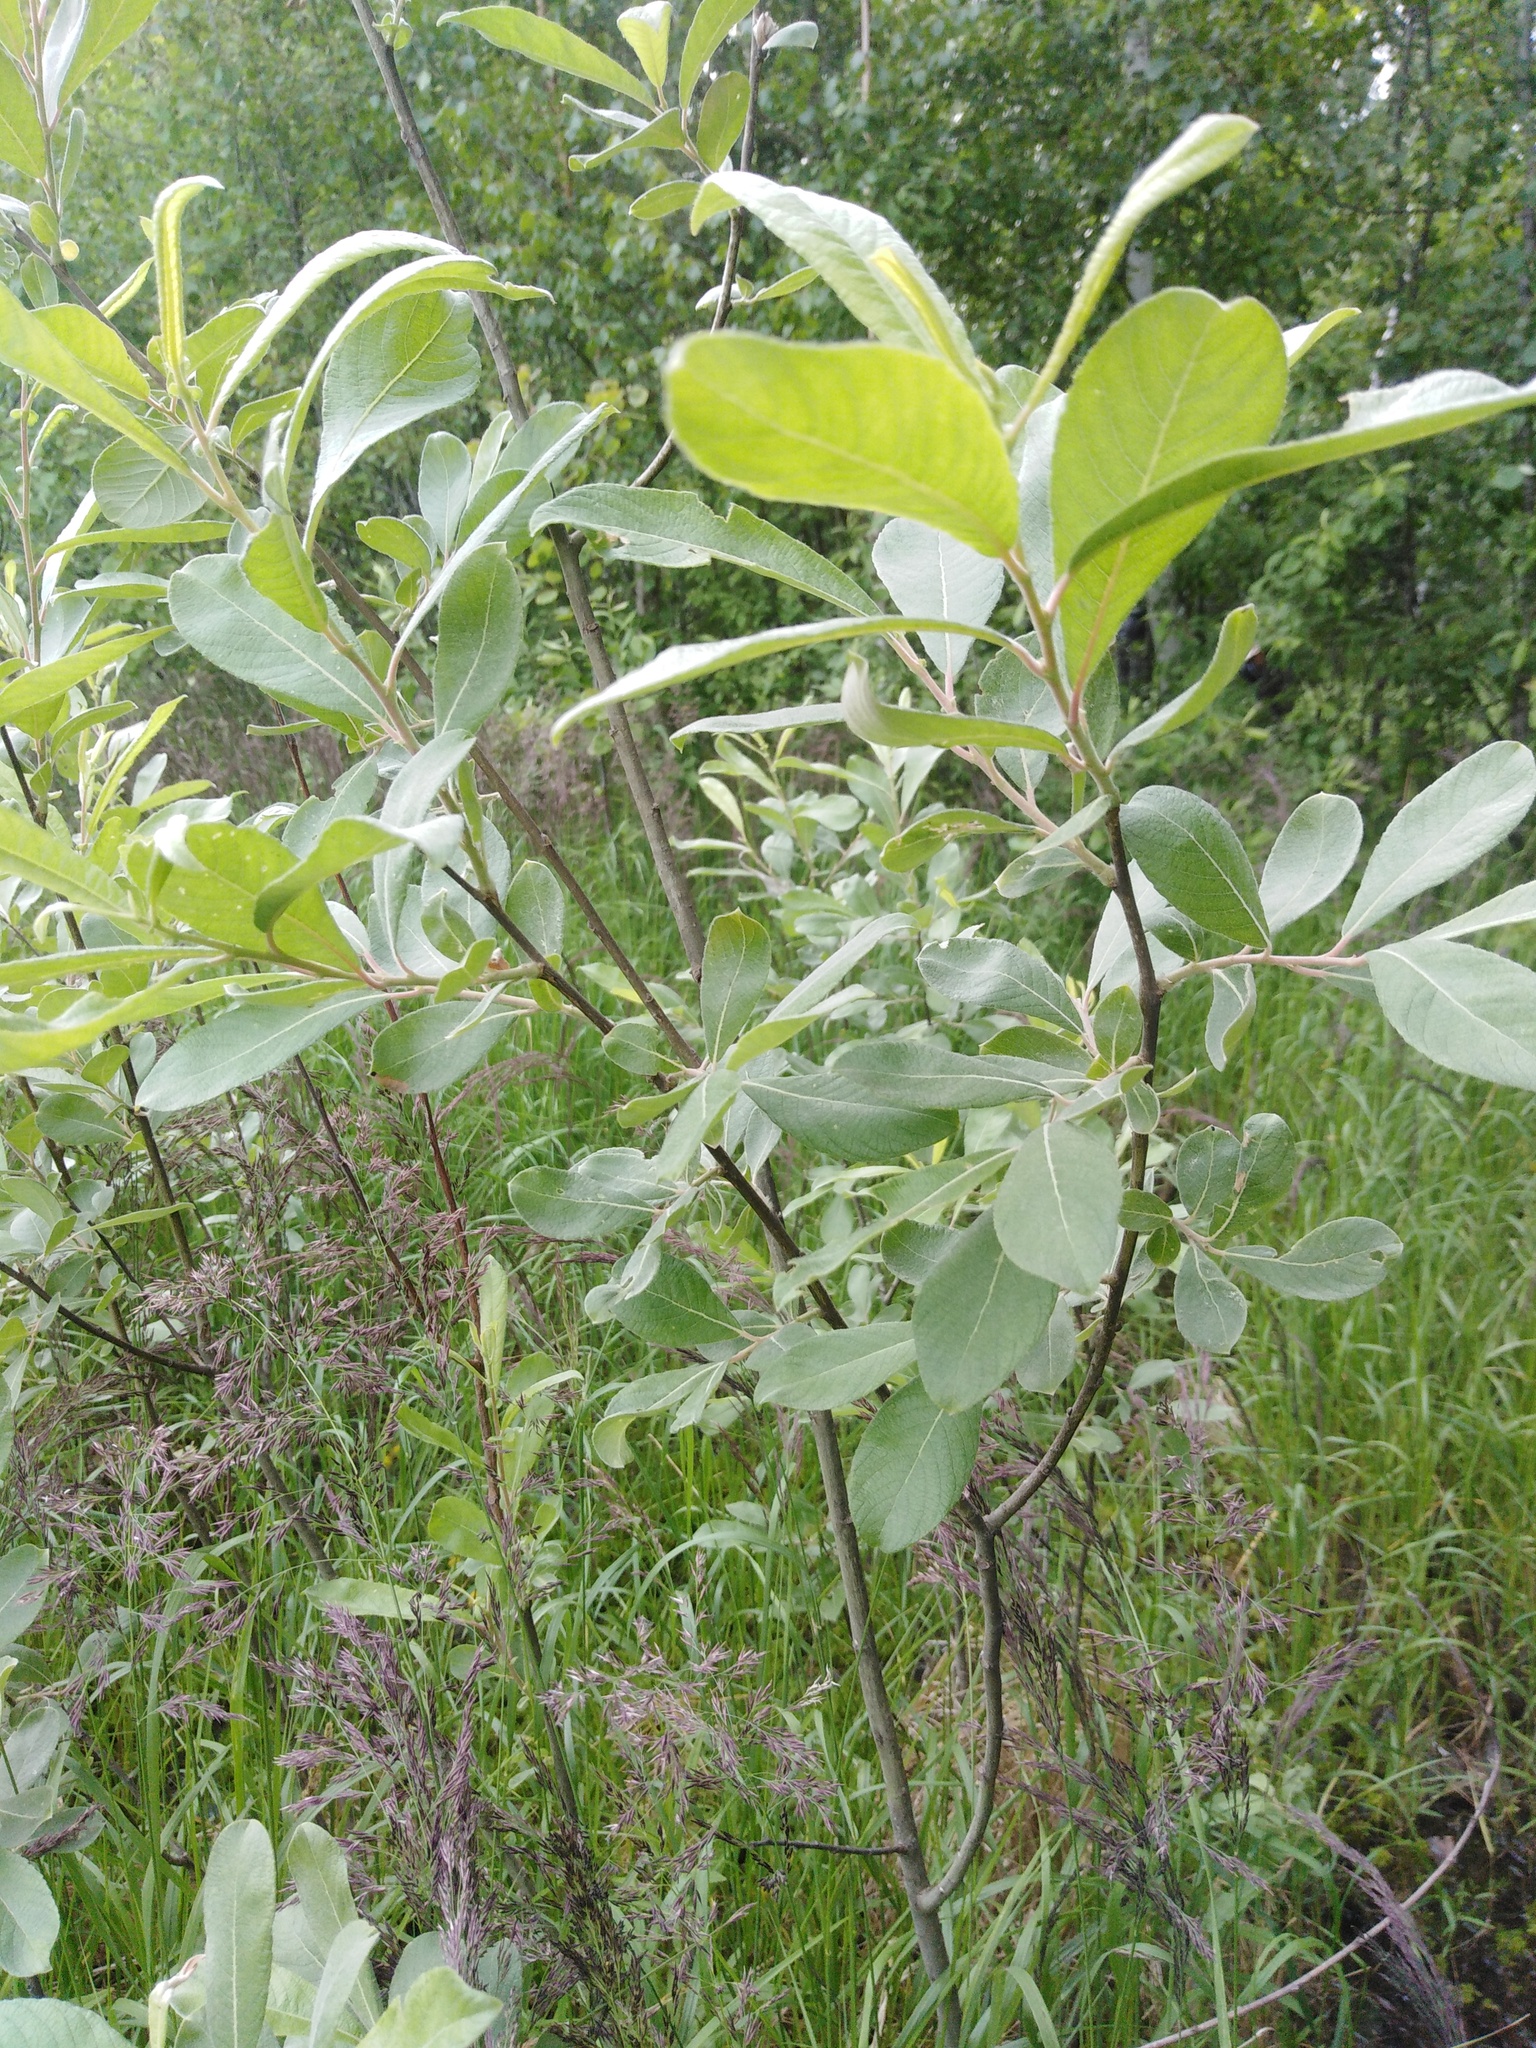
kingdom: Plantae
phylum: Tracheophyta
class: Magnoliopsida
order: Malpighiales
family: Salicaceae
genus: Salix
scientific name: Salix cinerea
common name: Common sallow
